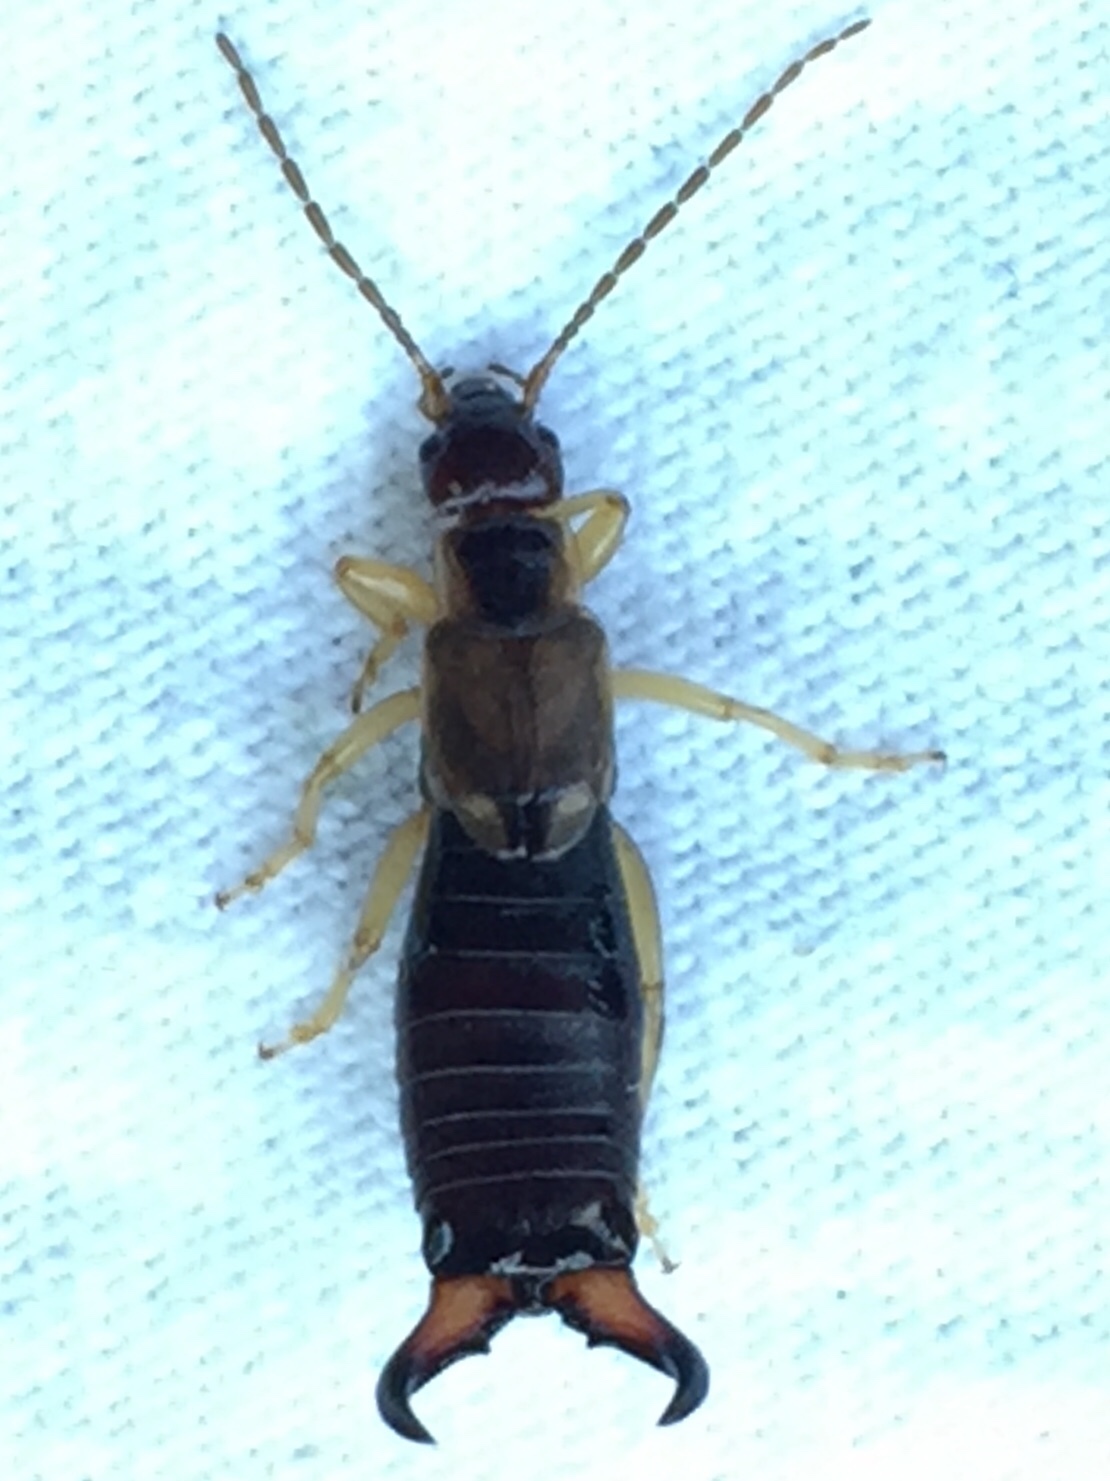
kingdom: Animalia
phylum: Arthropoda
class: Insecta
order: Dermaptera
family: Forficulidae
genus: Forficula
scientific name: Forficula
